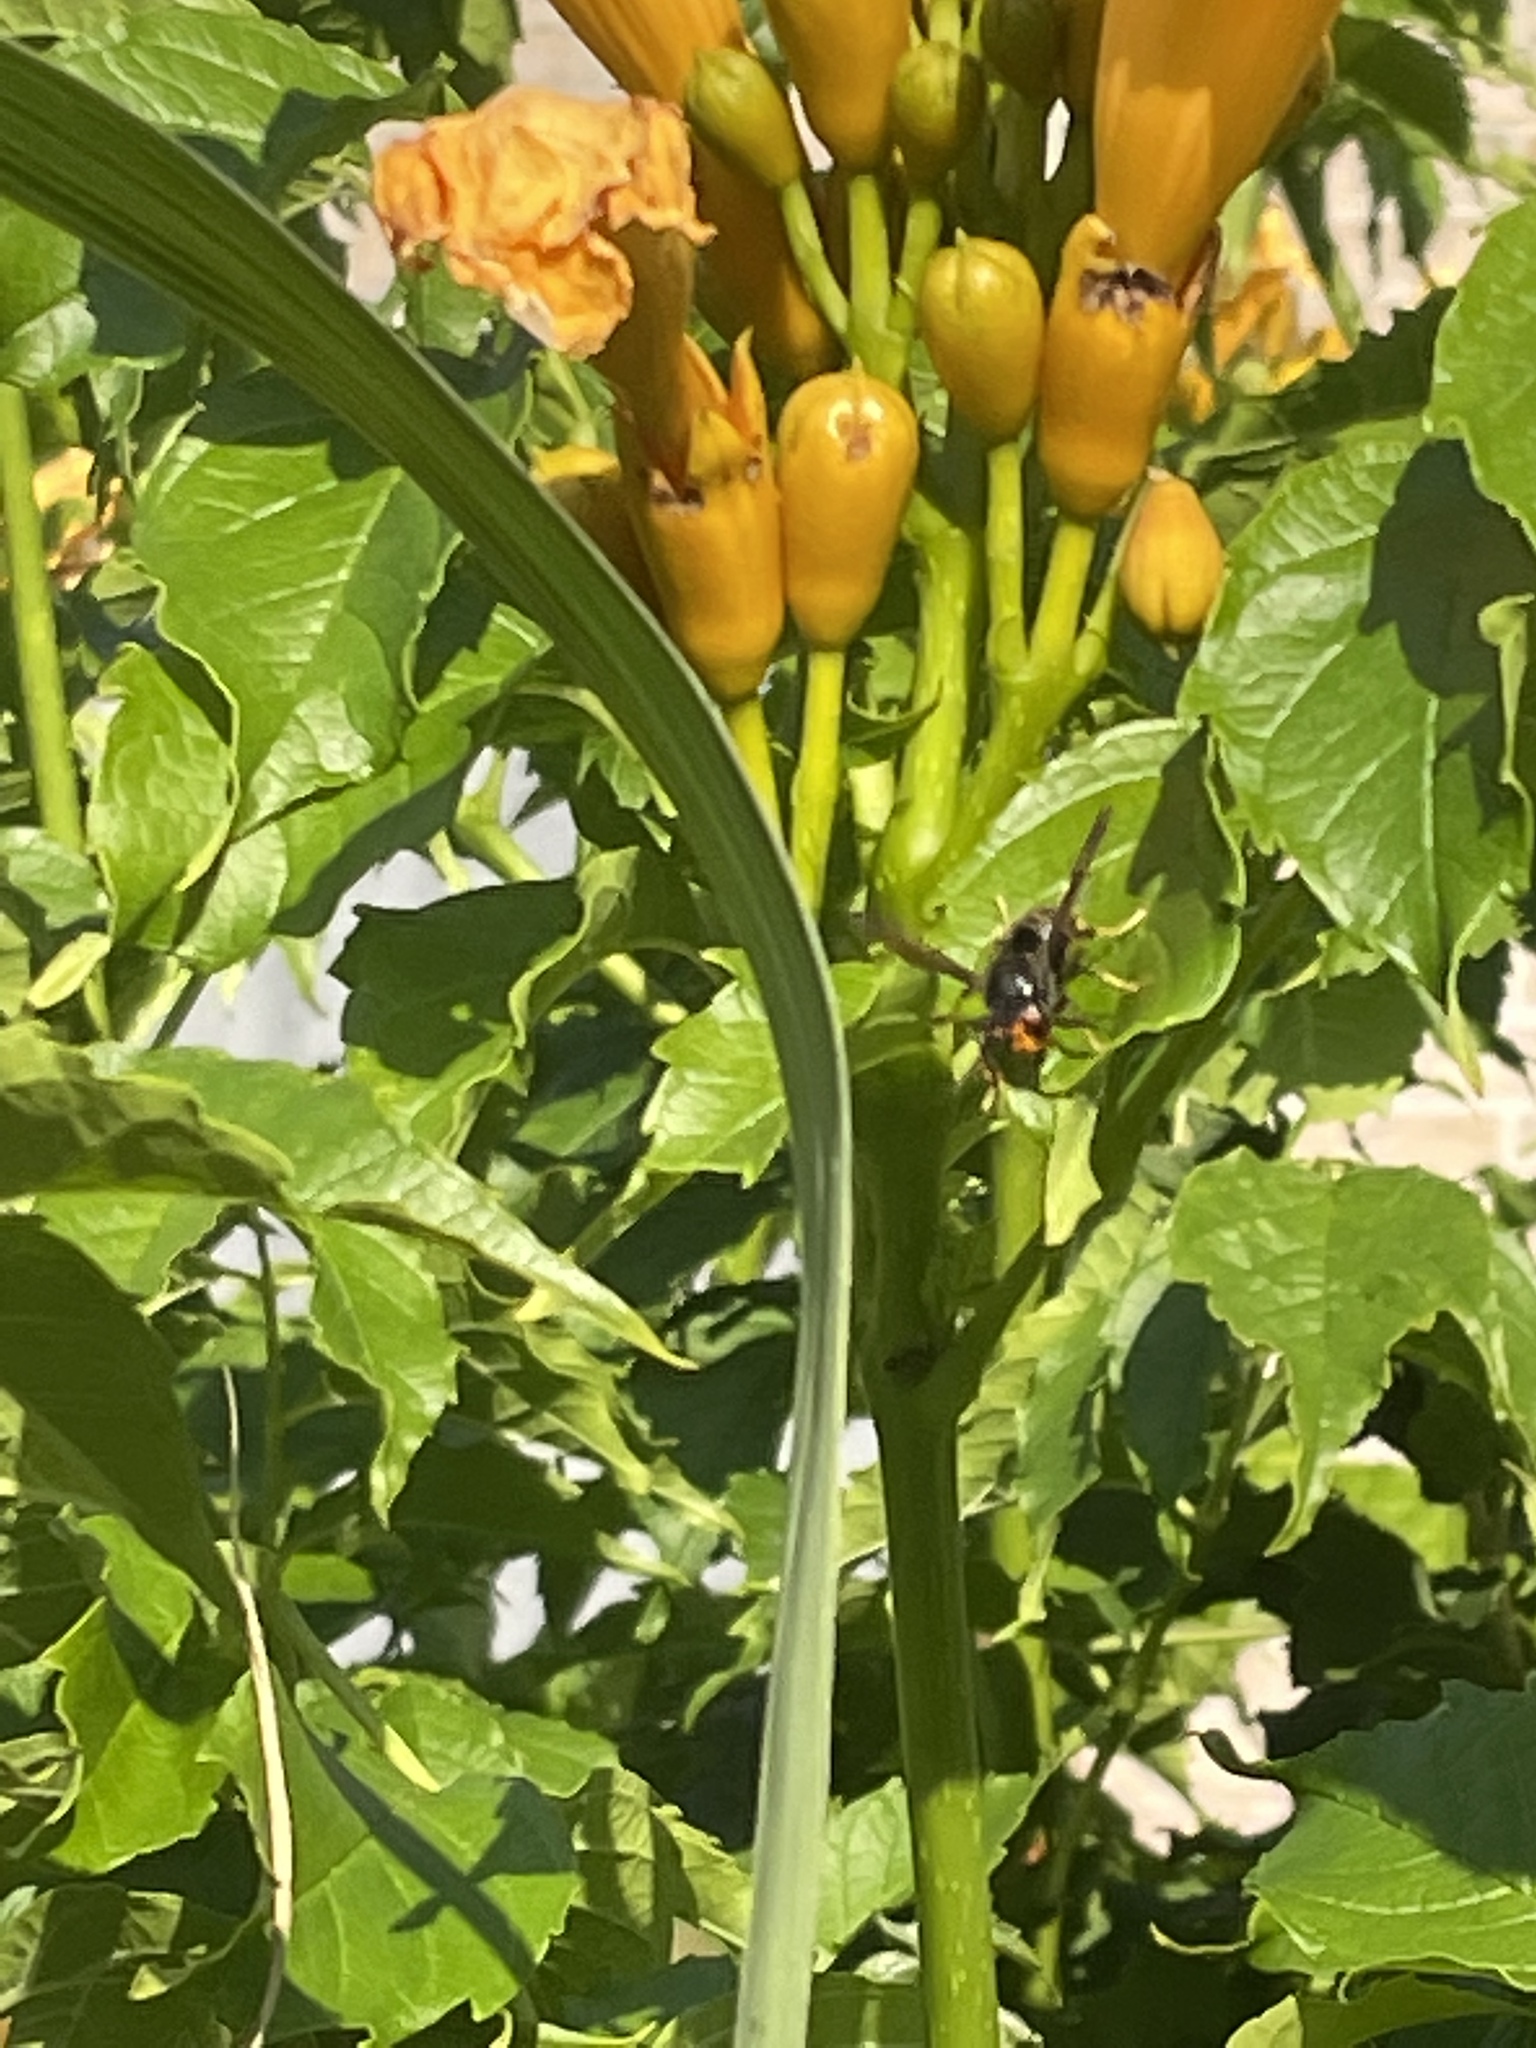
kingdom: Animalia
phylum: Arthropoda
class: Insecta
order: Hymenoptera
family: Vespidae
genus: Vespa
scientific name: Vespa velutina
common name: Asian hornet
